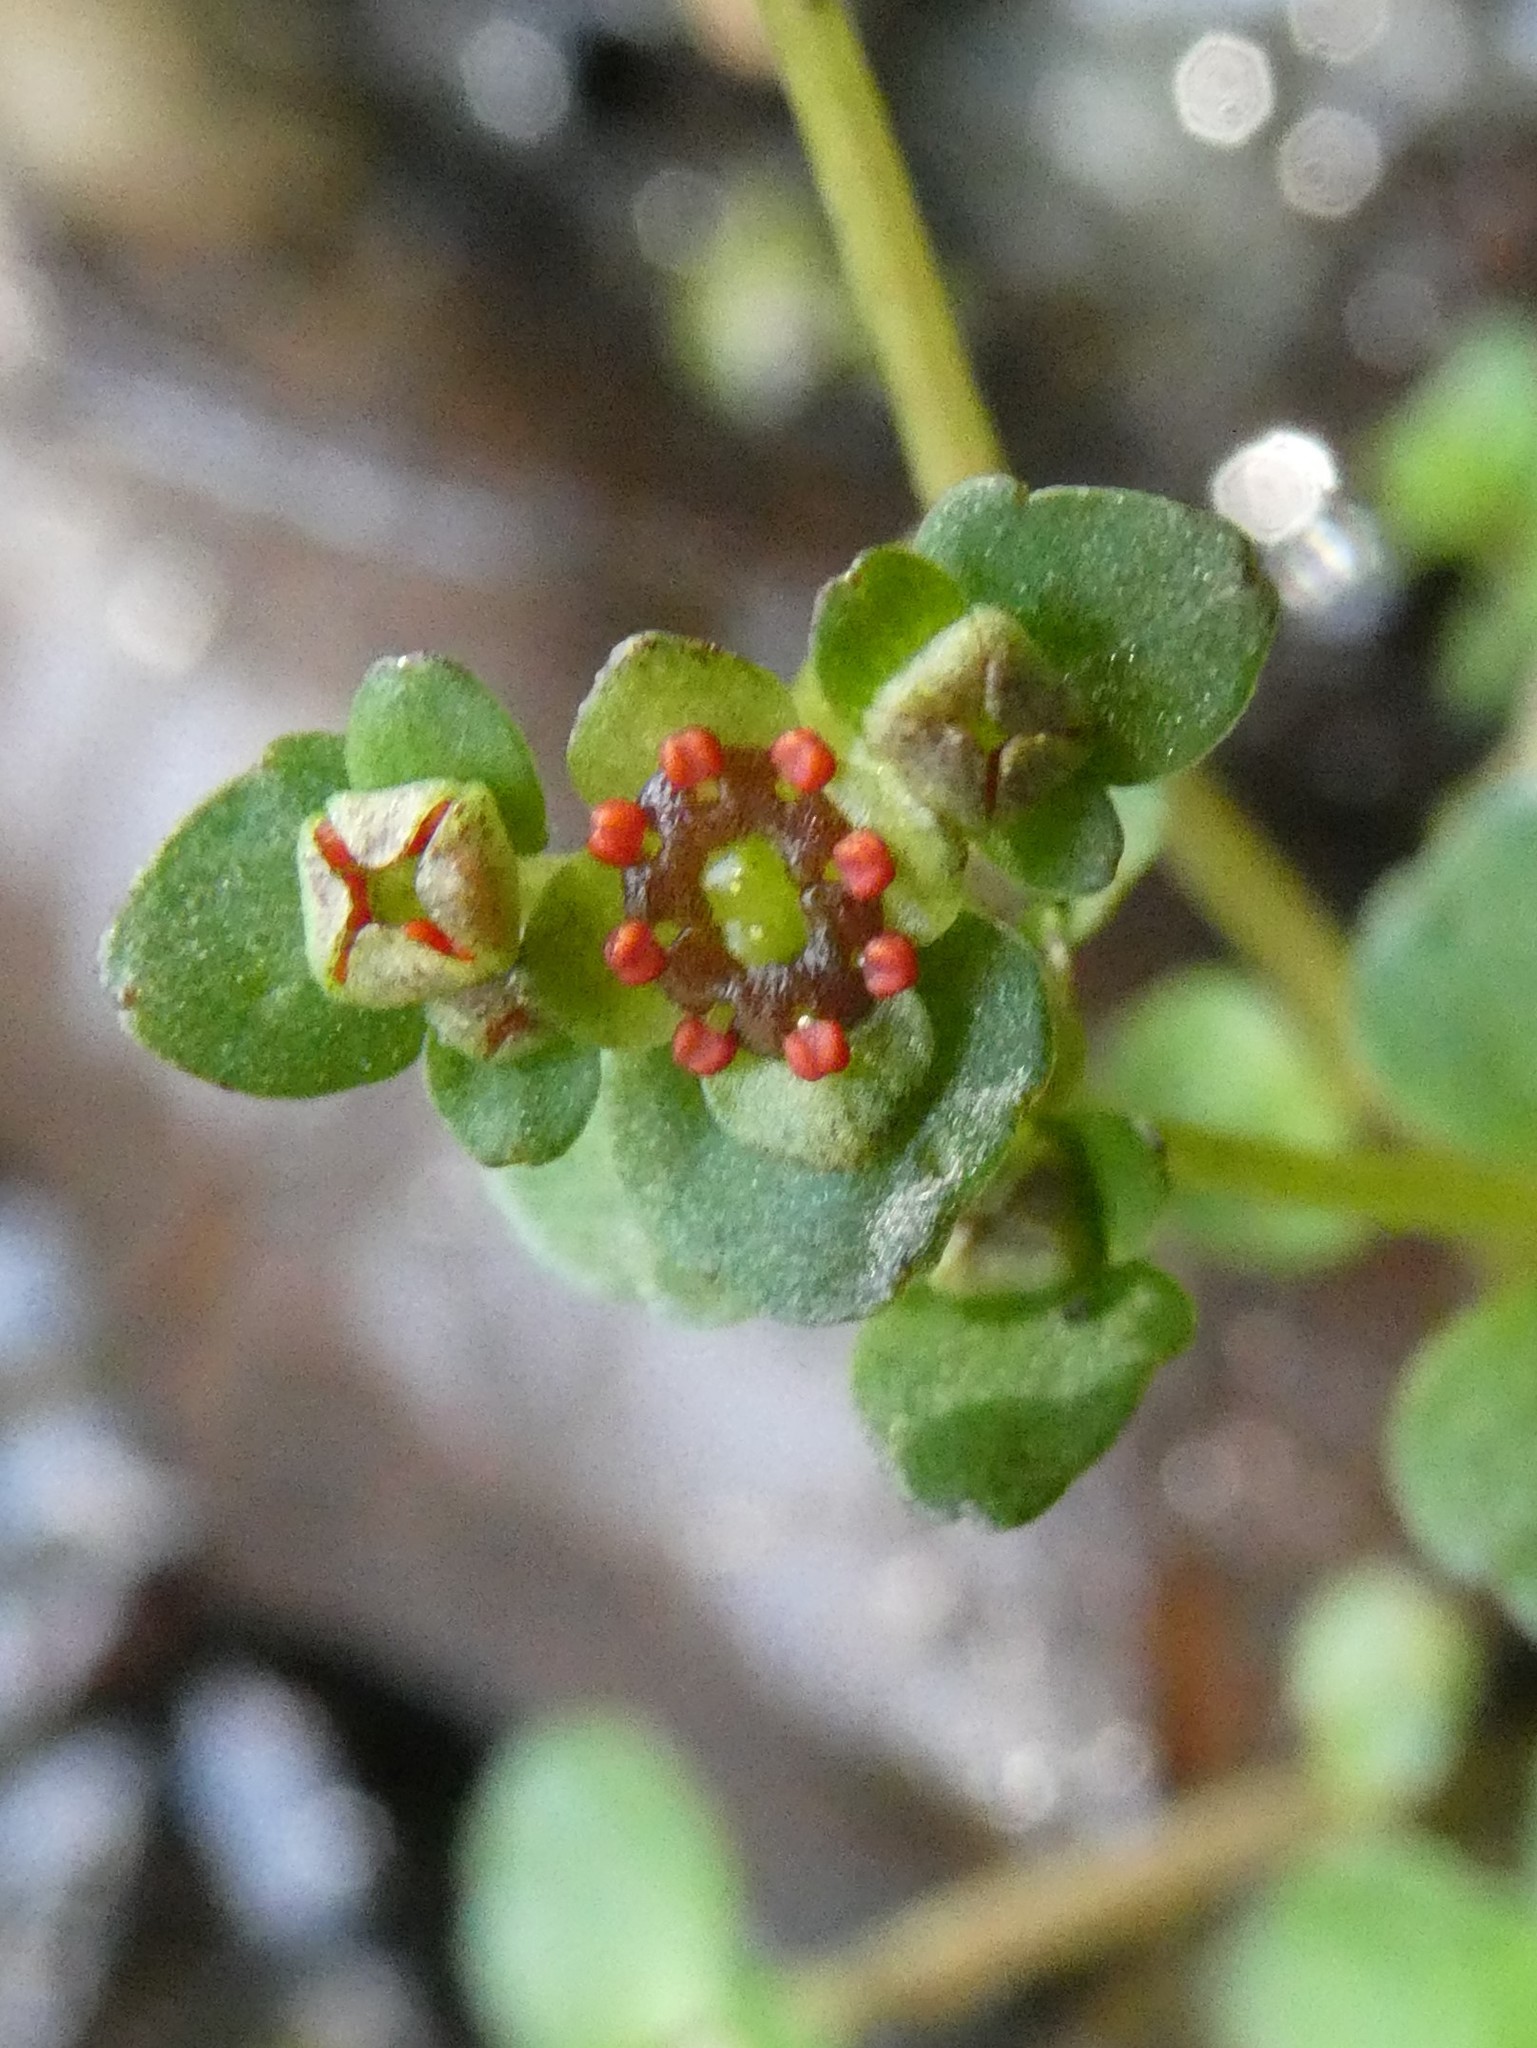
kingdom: Plantae
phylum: Tracheophyta
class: Magnoliopsida
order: Saxifragales
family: Saxifragaceae
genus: Chrysosplenium
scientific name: Chrysosplenium americanum
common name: American golden-saxifrage
